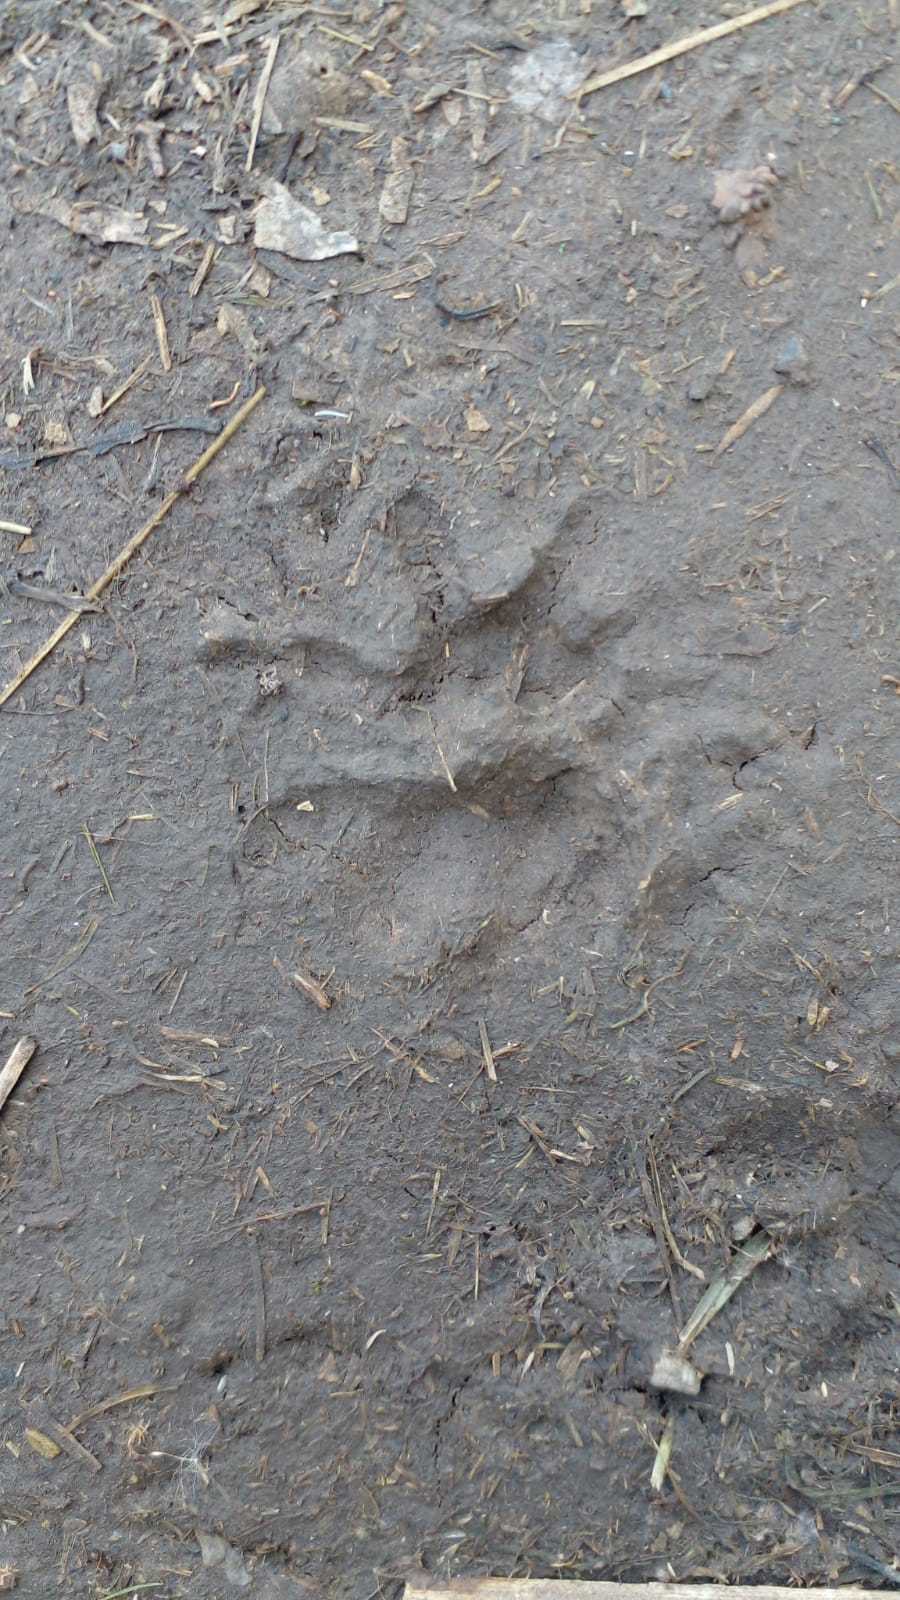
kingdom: Animalia
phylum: Chordata
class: Mammalia
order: Didelphimorphia
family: Didelphidae
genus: Didelphis
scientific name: Didelphis albiventris
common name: White-eared opossum
